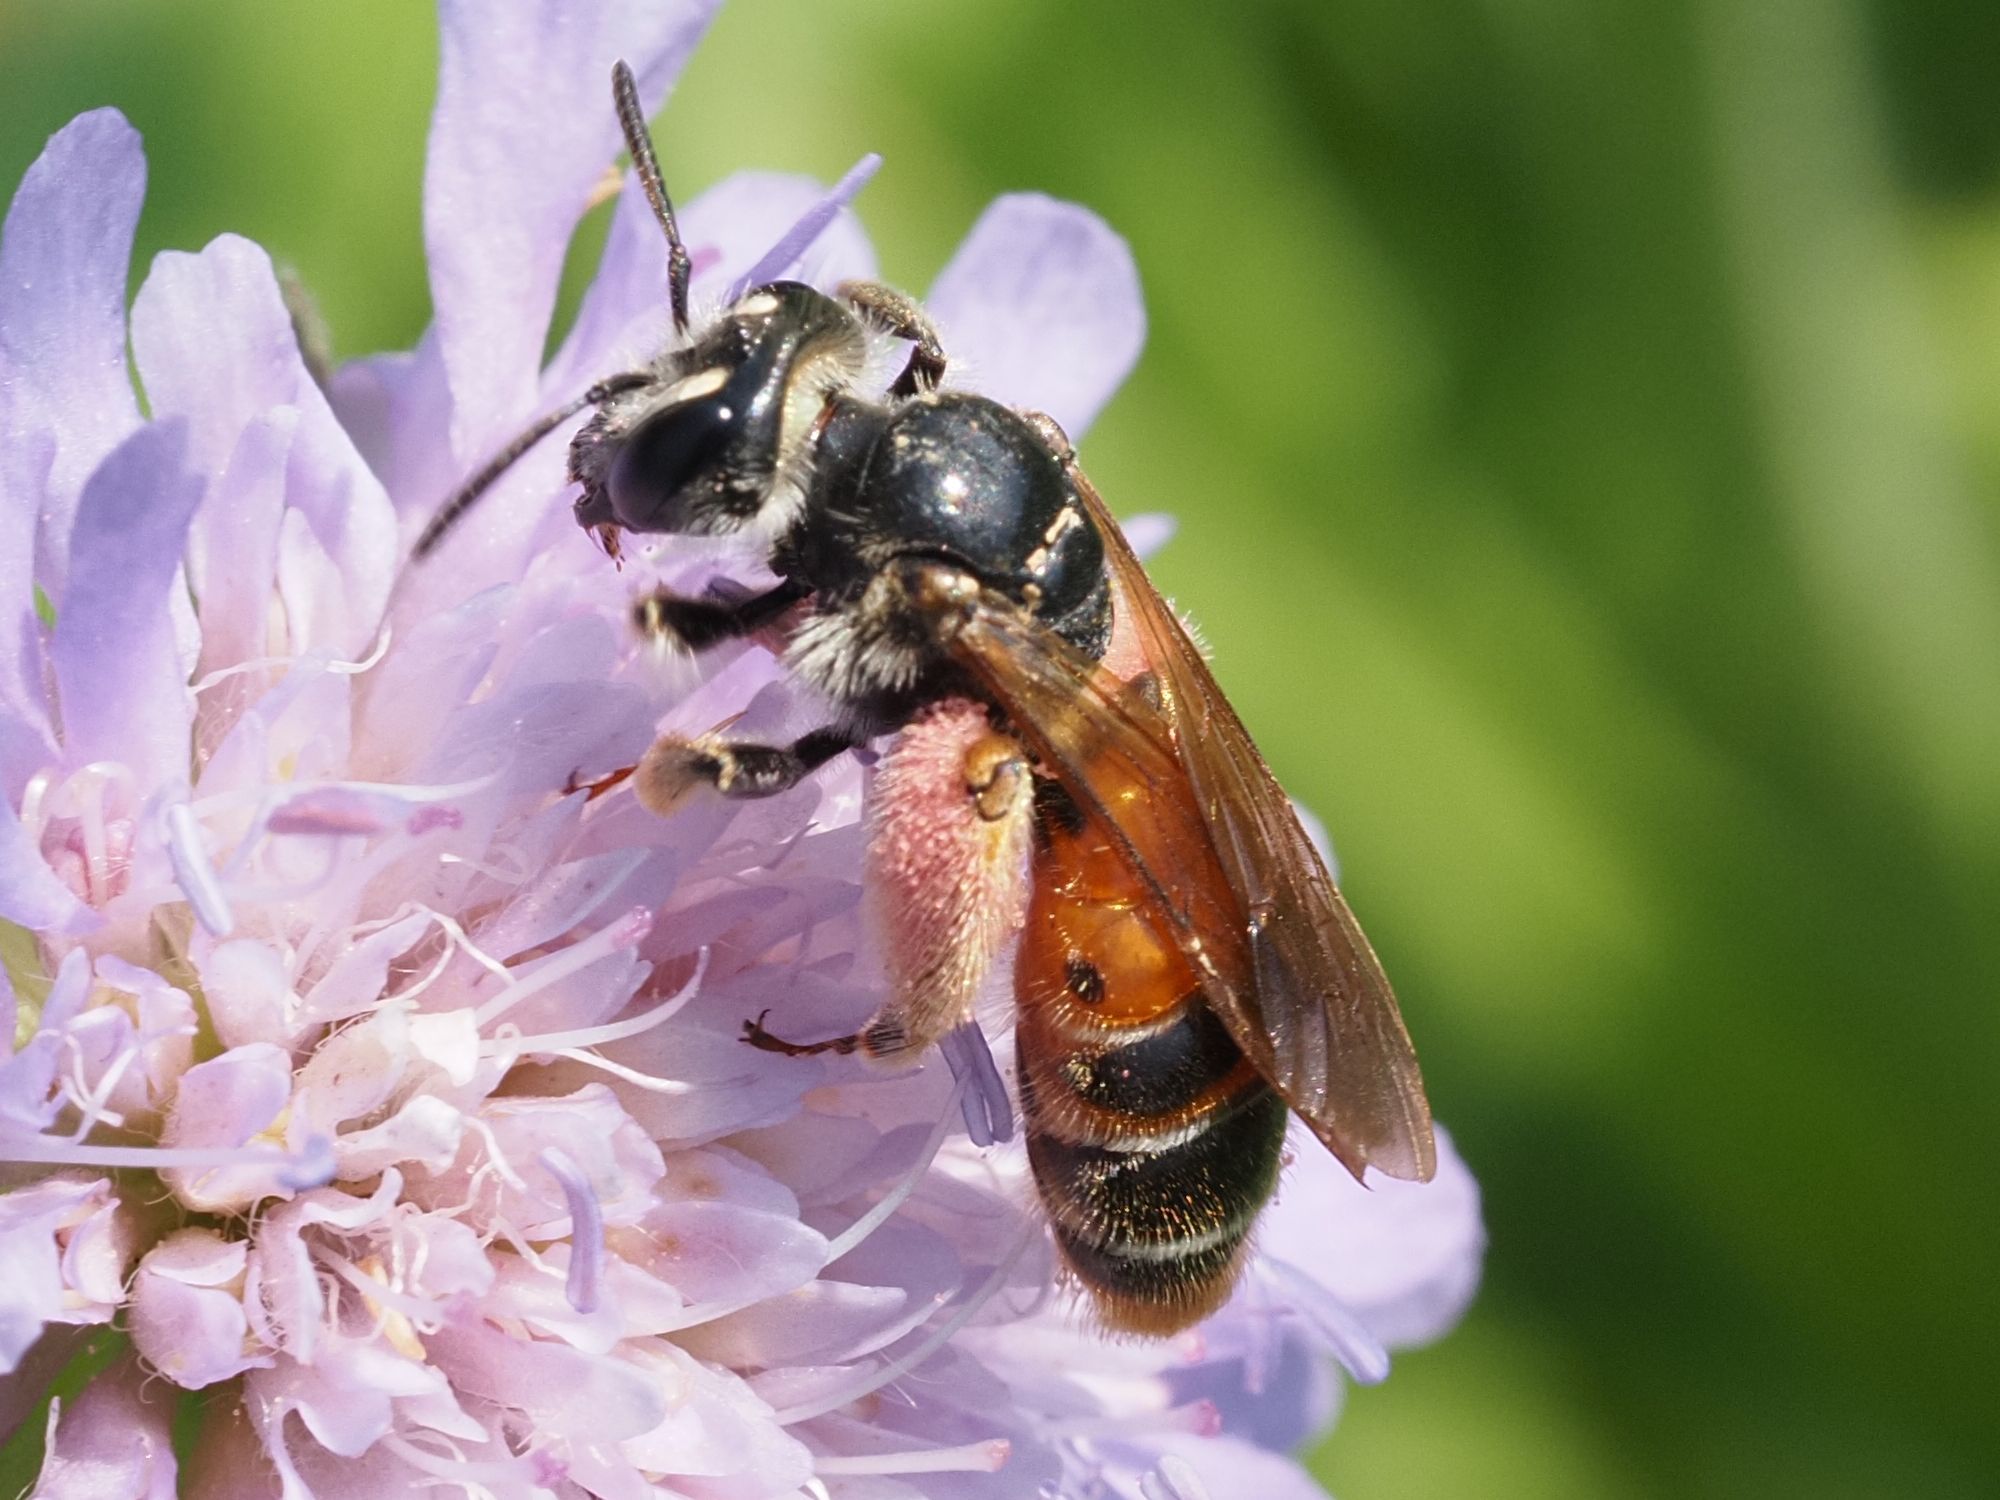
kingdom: Animalia
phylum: Arthropoda
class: Insecta
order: Hymenoptera
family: Andrenidae
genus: Andrena
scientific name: Andrena hattorfiana
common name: Large scabious mining bee
